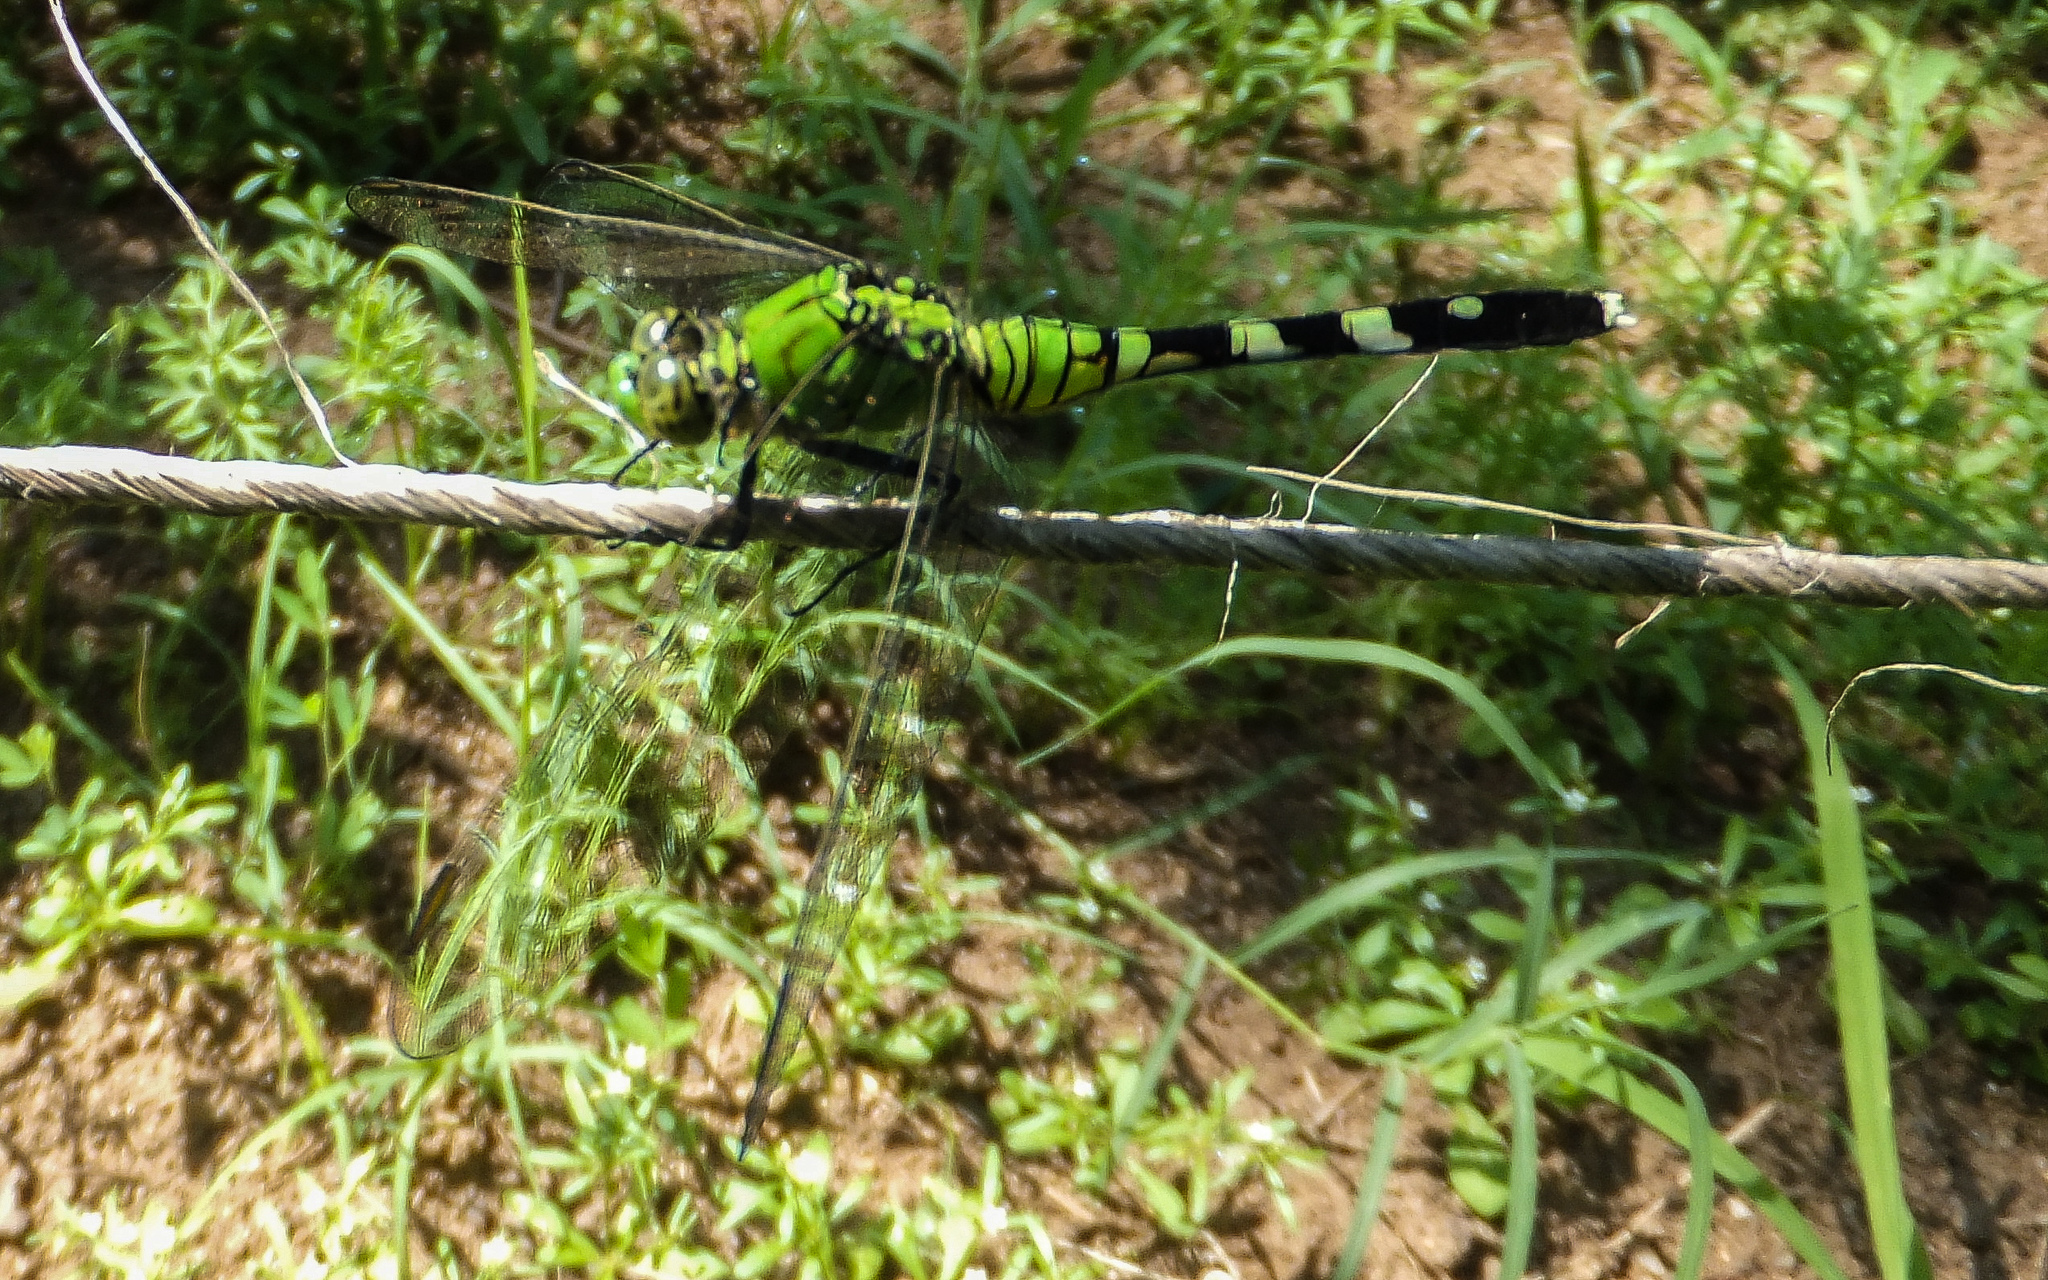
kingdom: Animalia
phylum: Arthropoda
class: Insecta
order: Odonata
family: Libellulidae
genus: Erythemis
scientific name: Erythemis simplicicollis
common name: Eastern pondhawk
